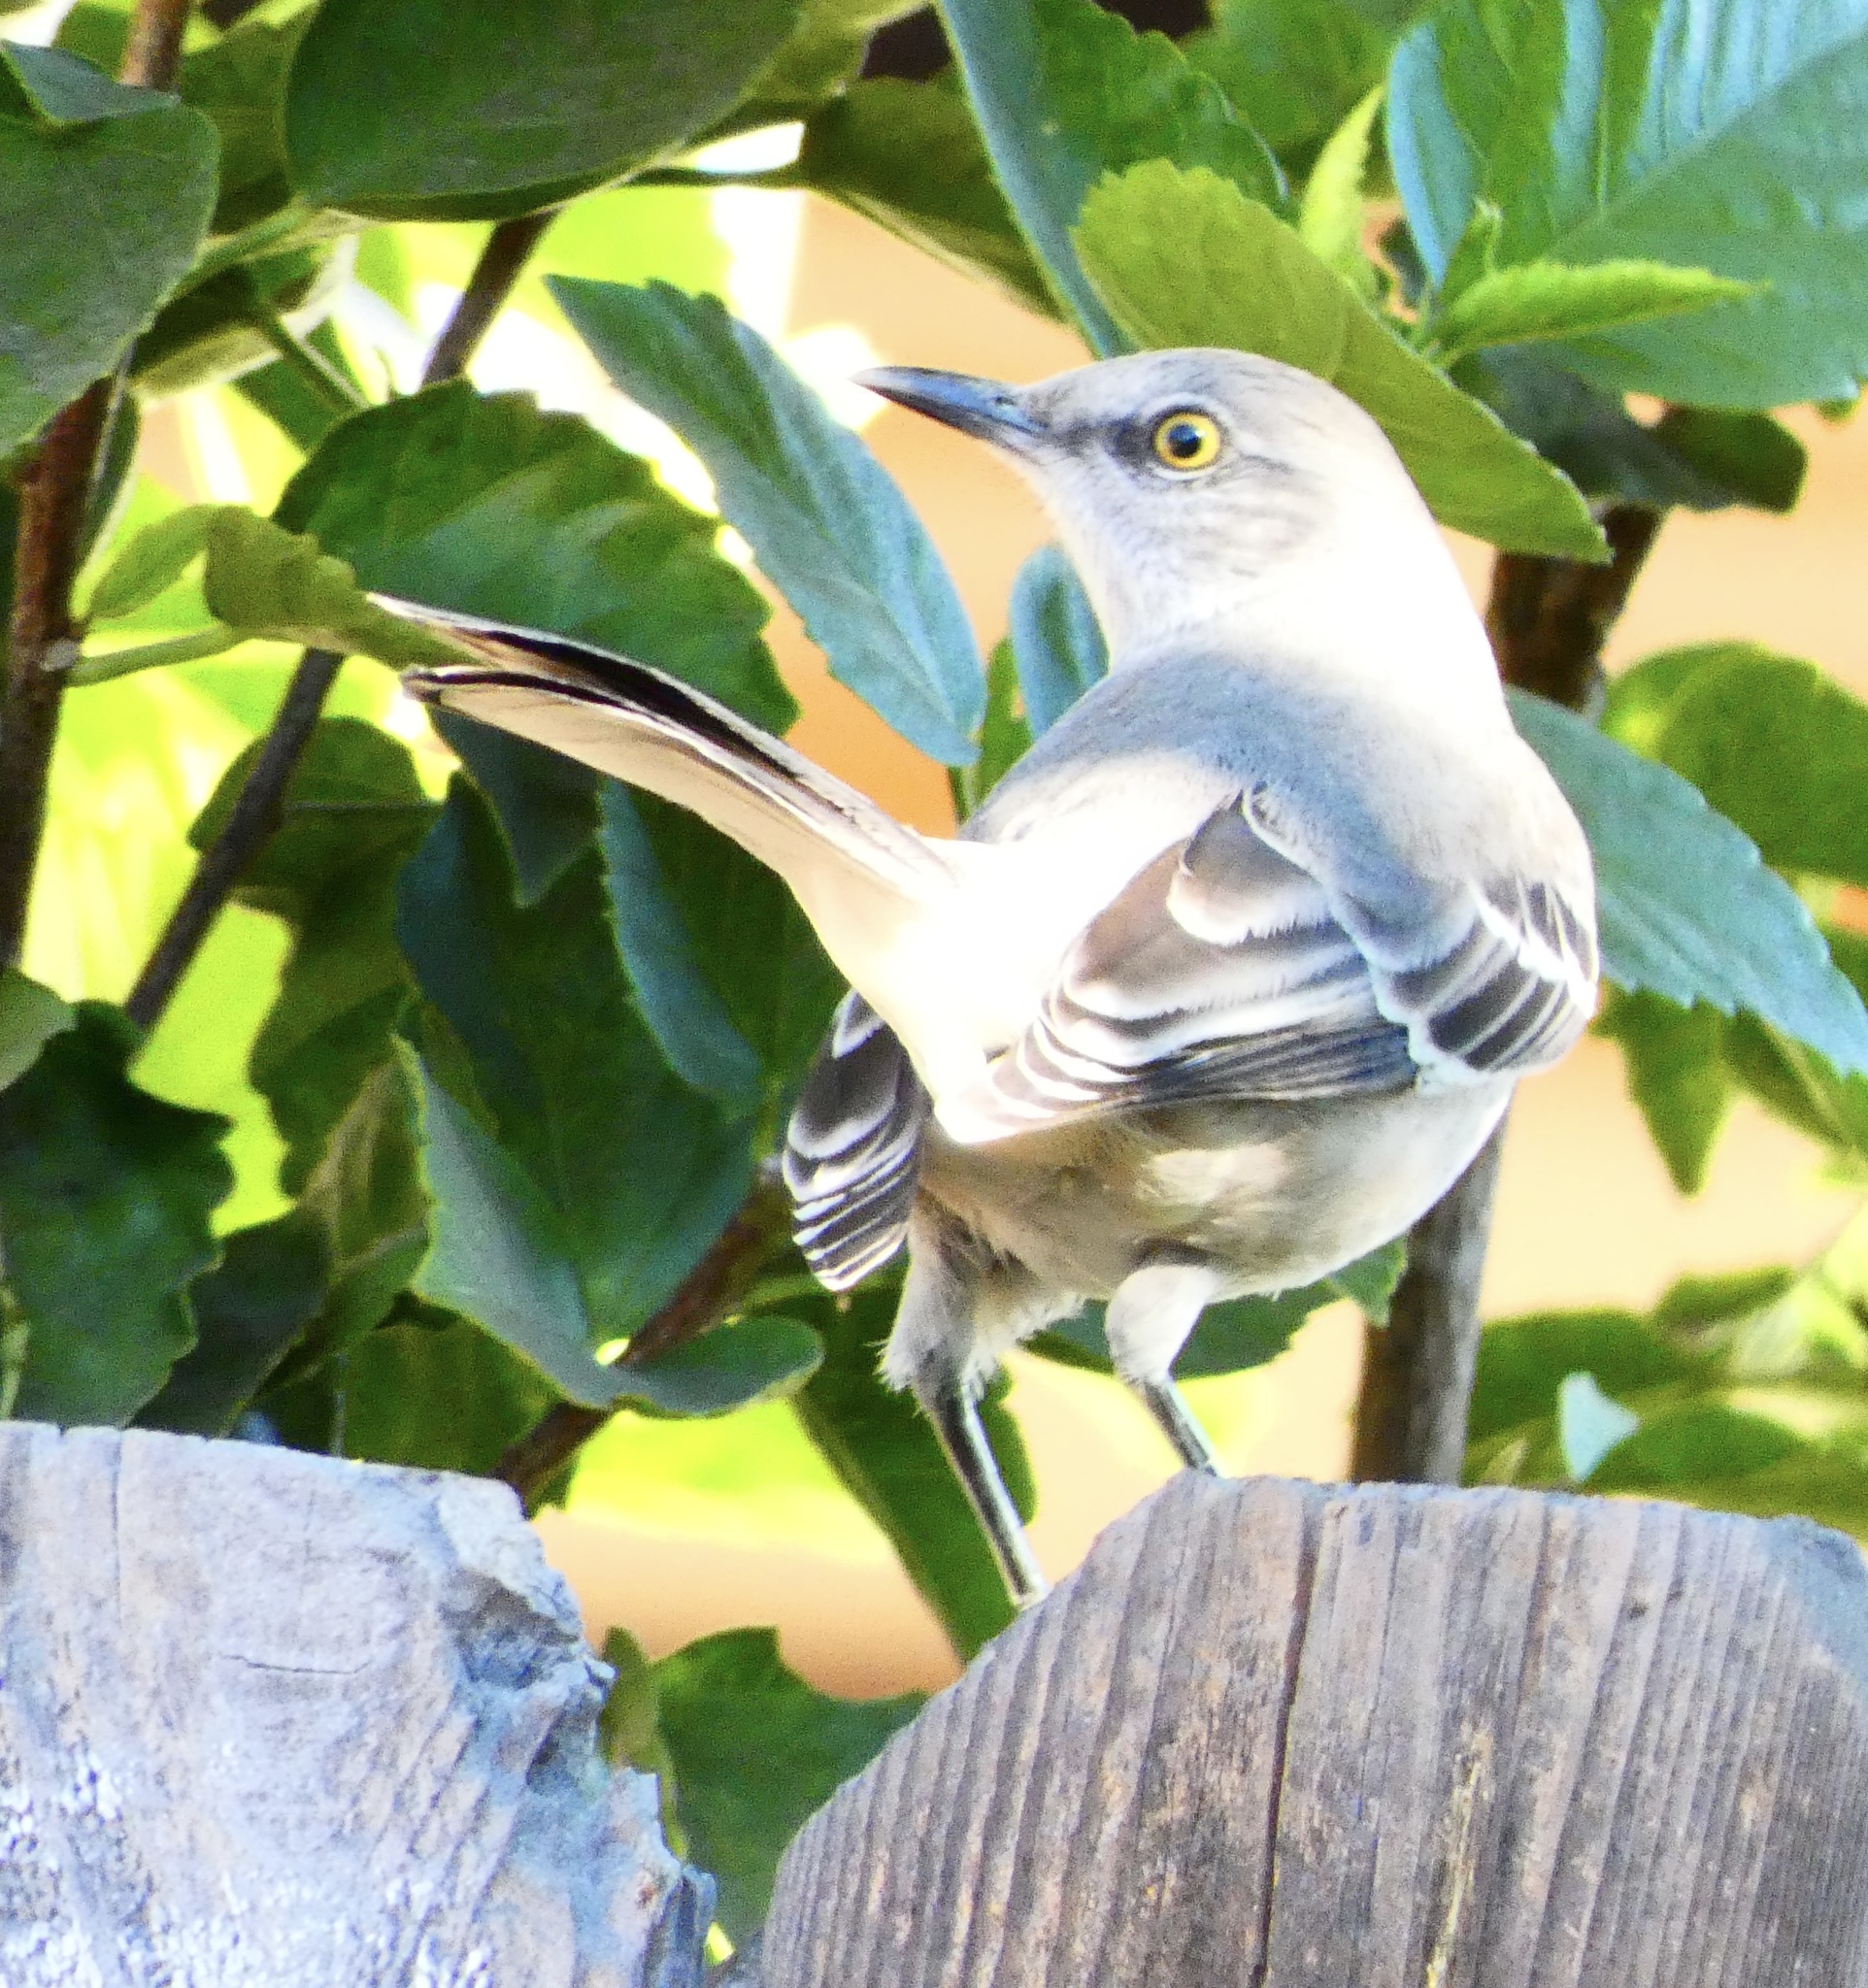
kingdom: Animalia
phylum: Chordata
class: Aves
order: Passeriformes
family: Mimidae
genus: Mimus
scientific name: Mimus polyglottos
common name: Northern mockingbird
